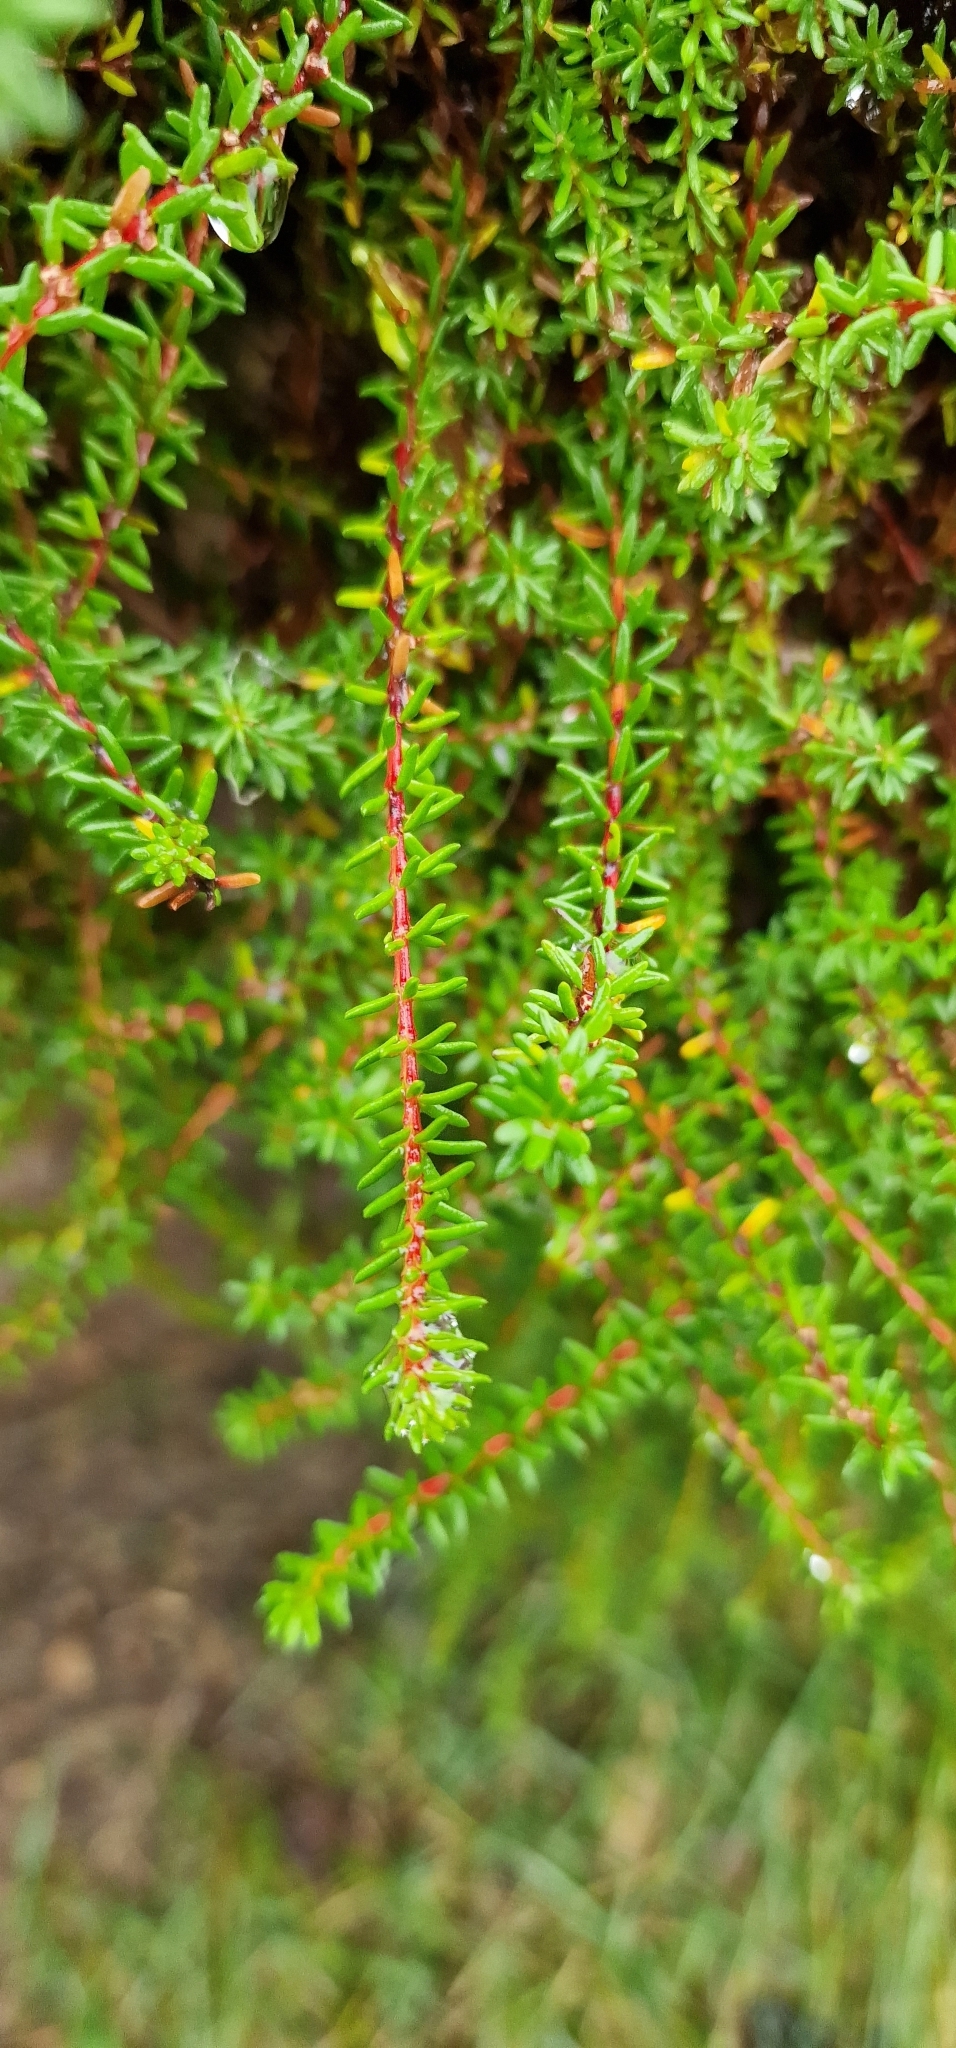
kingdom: Plantae
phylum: Tracheophyta
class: Magnoliopsida
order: Ericales
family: Ericaceae
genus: Empetrum
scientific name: Empetrum nigrum
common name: Black crowberry
